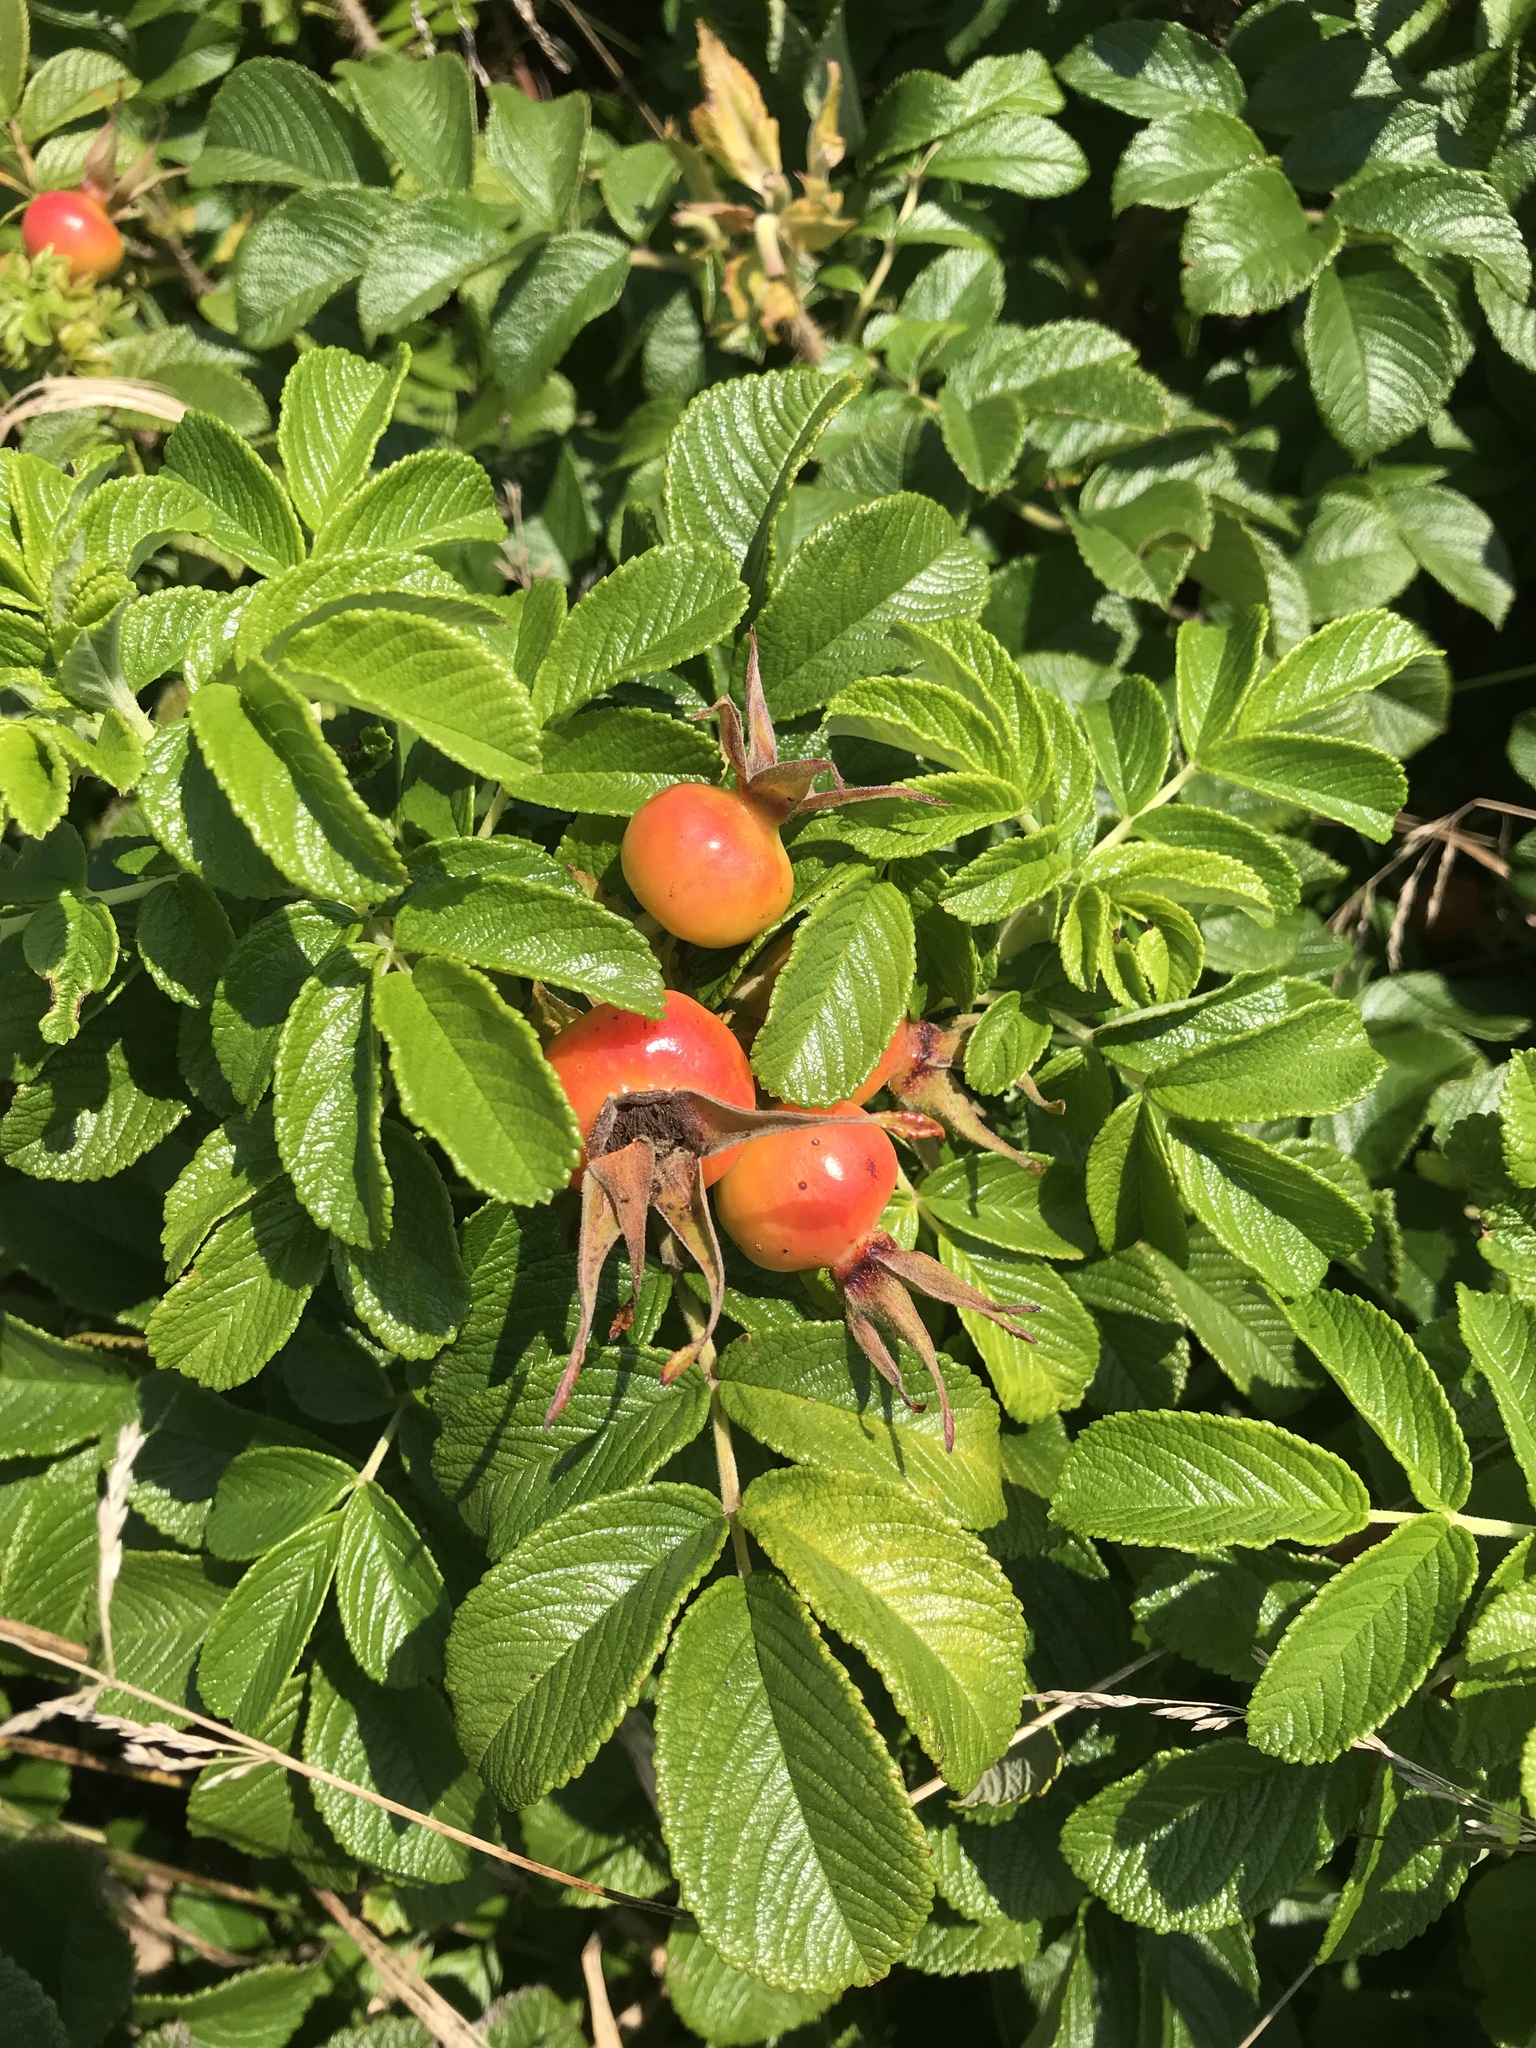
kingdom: Plantae
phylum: Tracheophyta
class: Magnoliopsida
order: Rosales
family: Rosaceae
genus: Rosa
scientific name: Rosa rugosa
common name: Japanese rose
